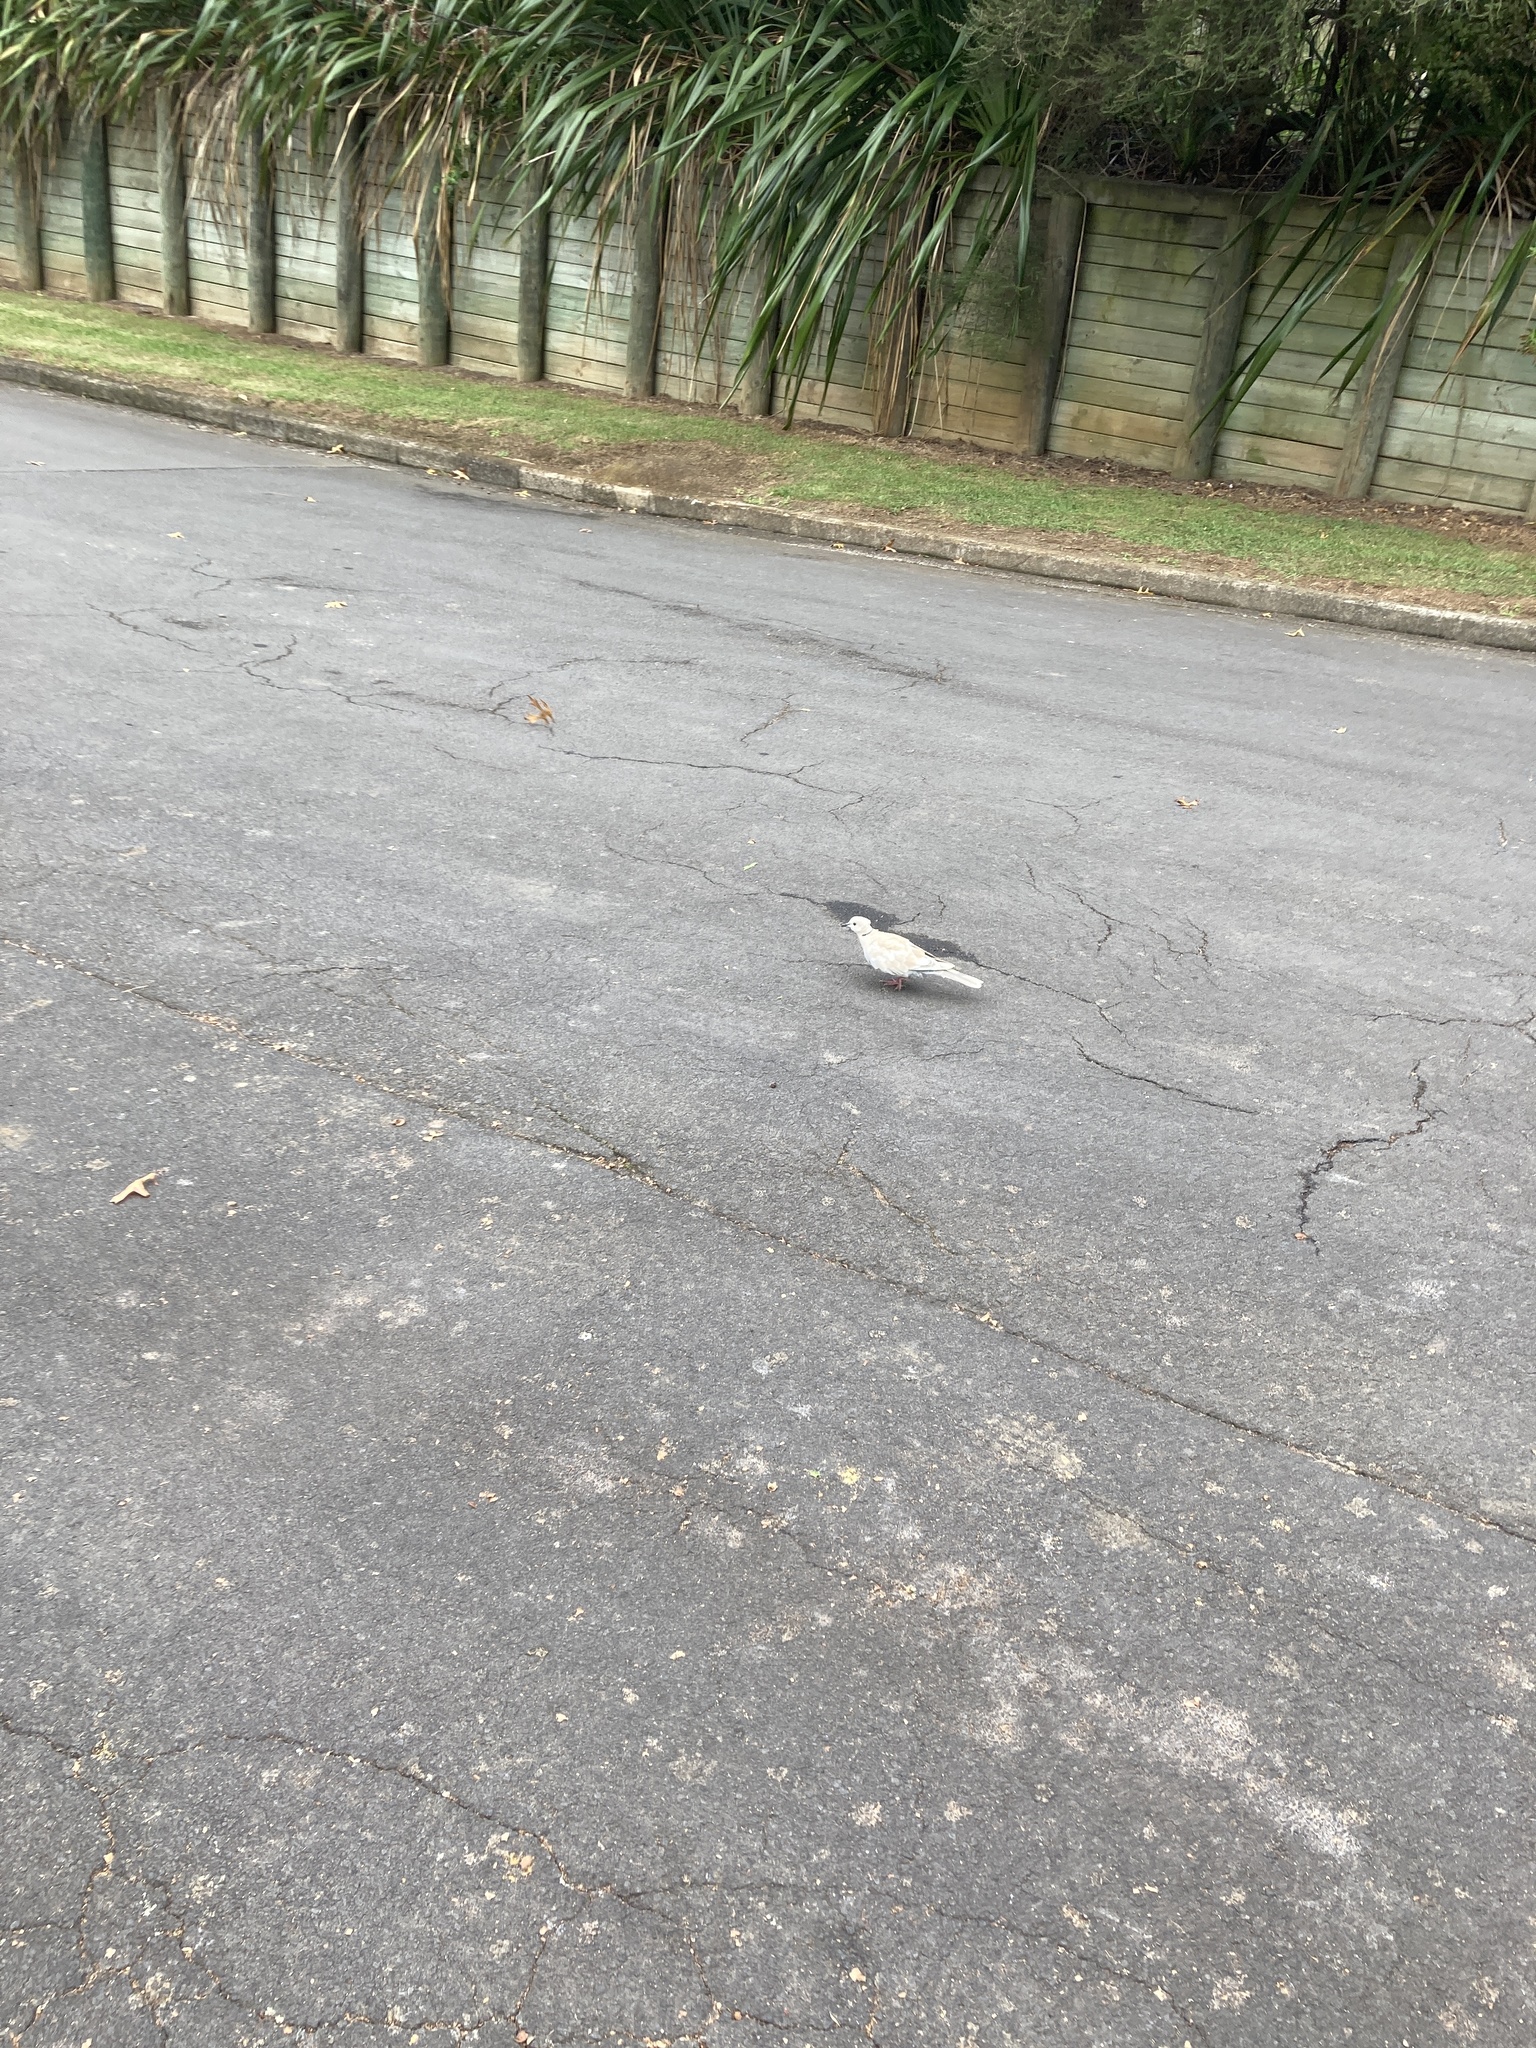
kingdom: Animalia
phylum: Chordata
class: Aves
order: Columbiformes
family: Columbidae
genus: Streptopelia
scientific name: Streptopelia roseogrisea
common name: African collared dove
